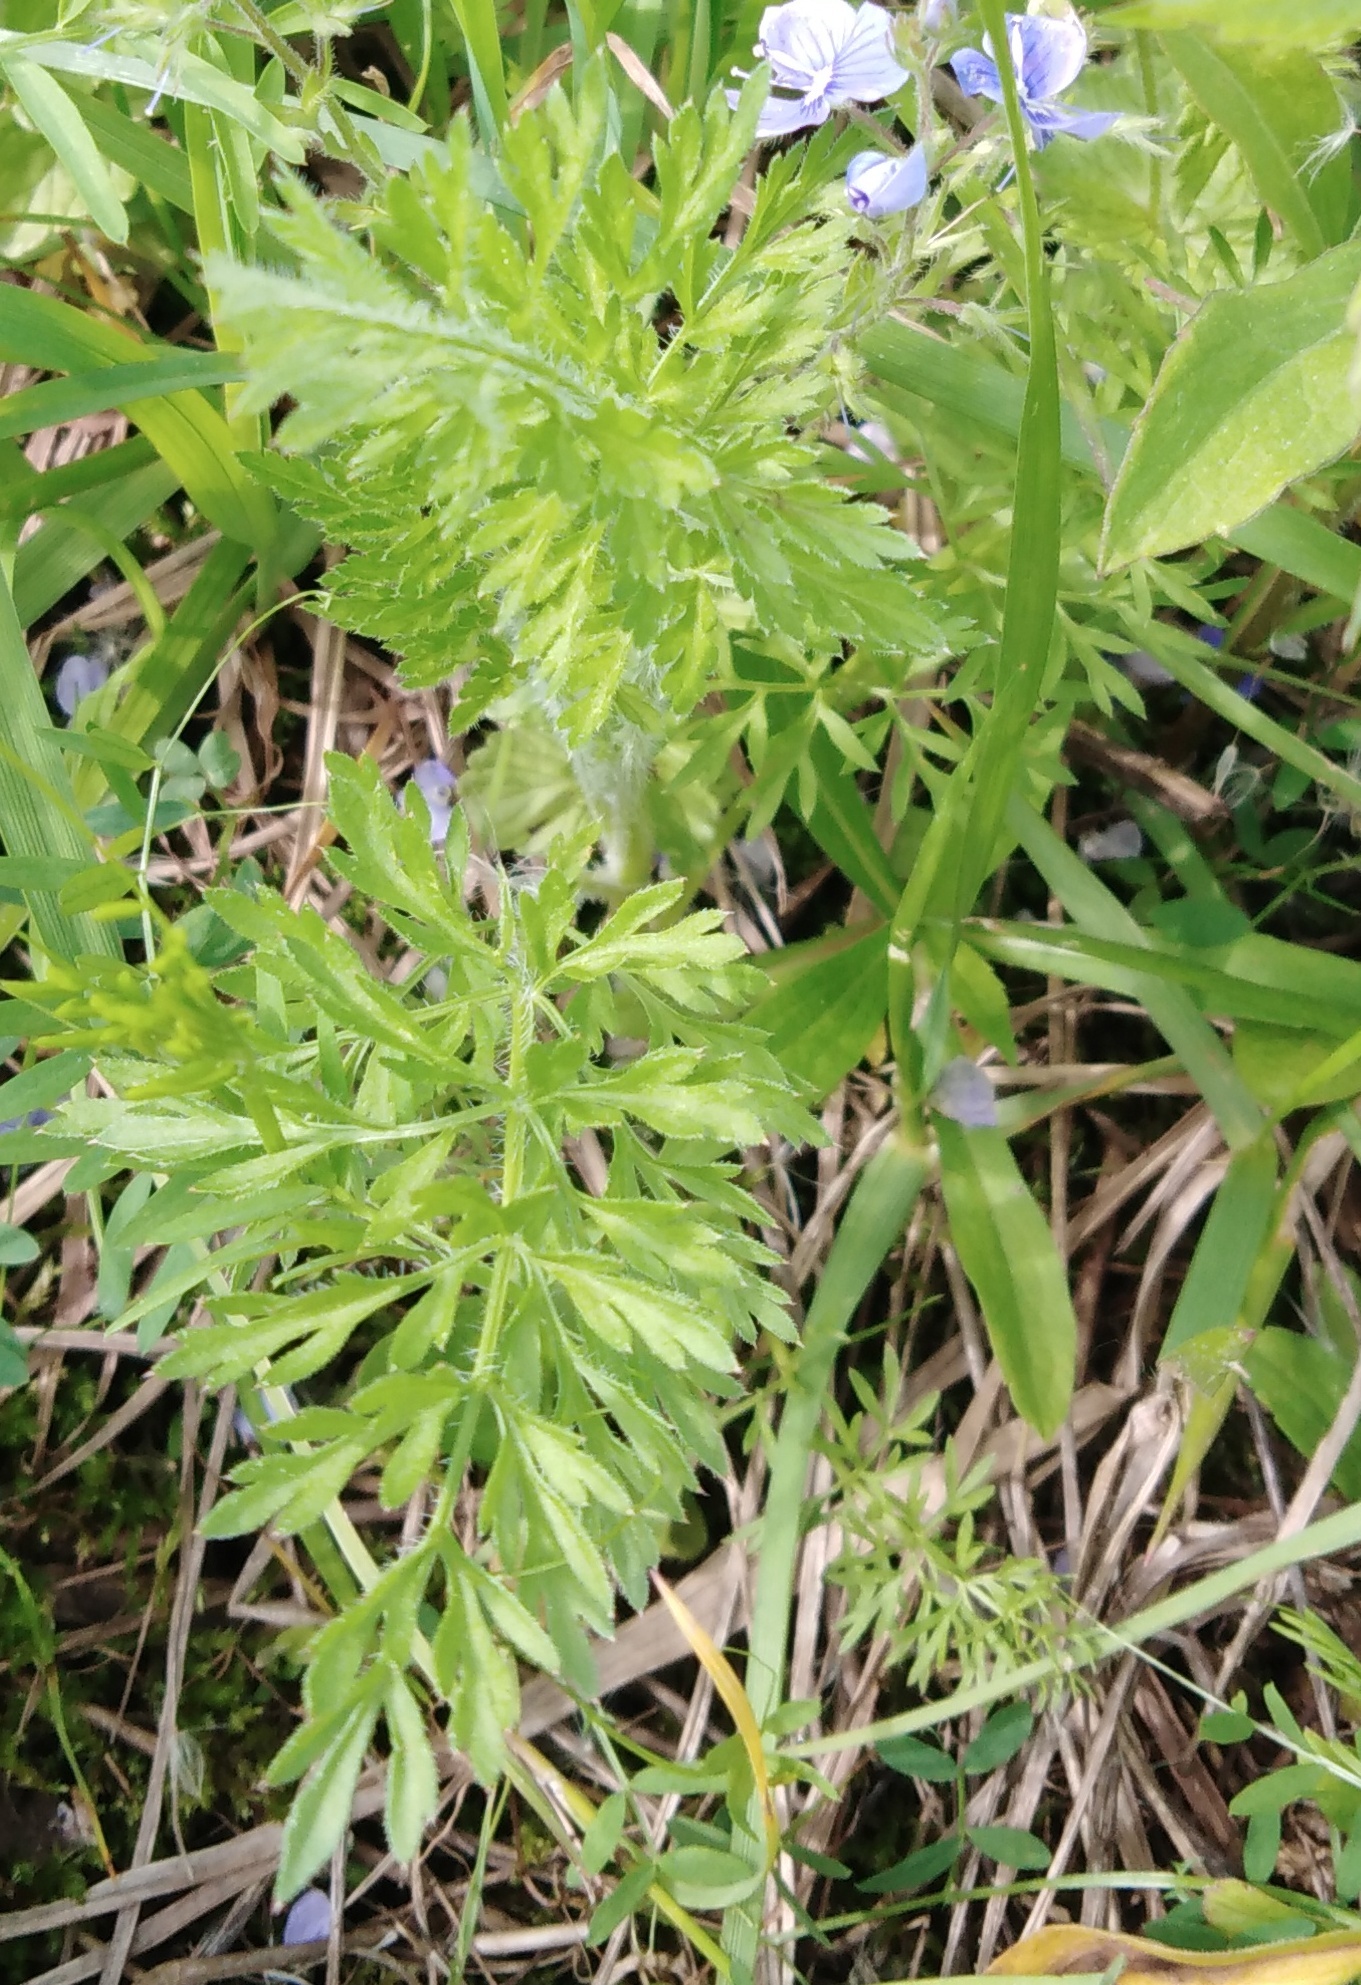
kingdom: Plantae
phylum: Tracheophyta
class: Magnoliopsida
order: Apiales
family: Apiaceae
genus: Daucus
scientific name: Daucus carota
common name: Wild carrot
